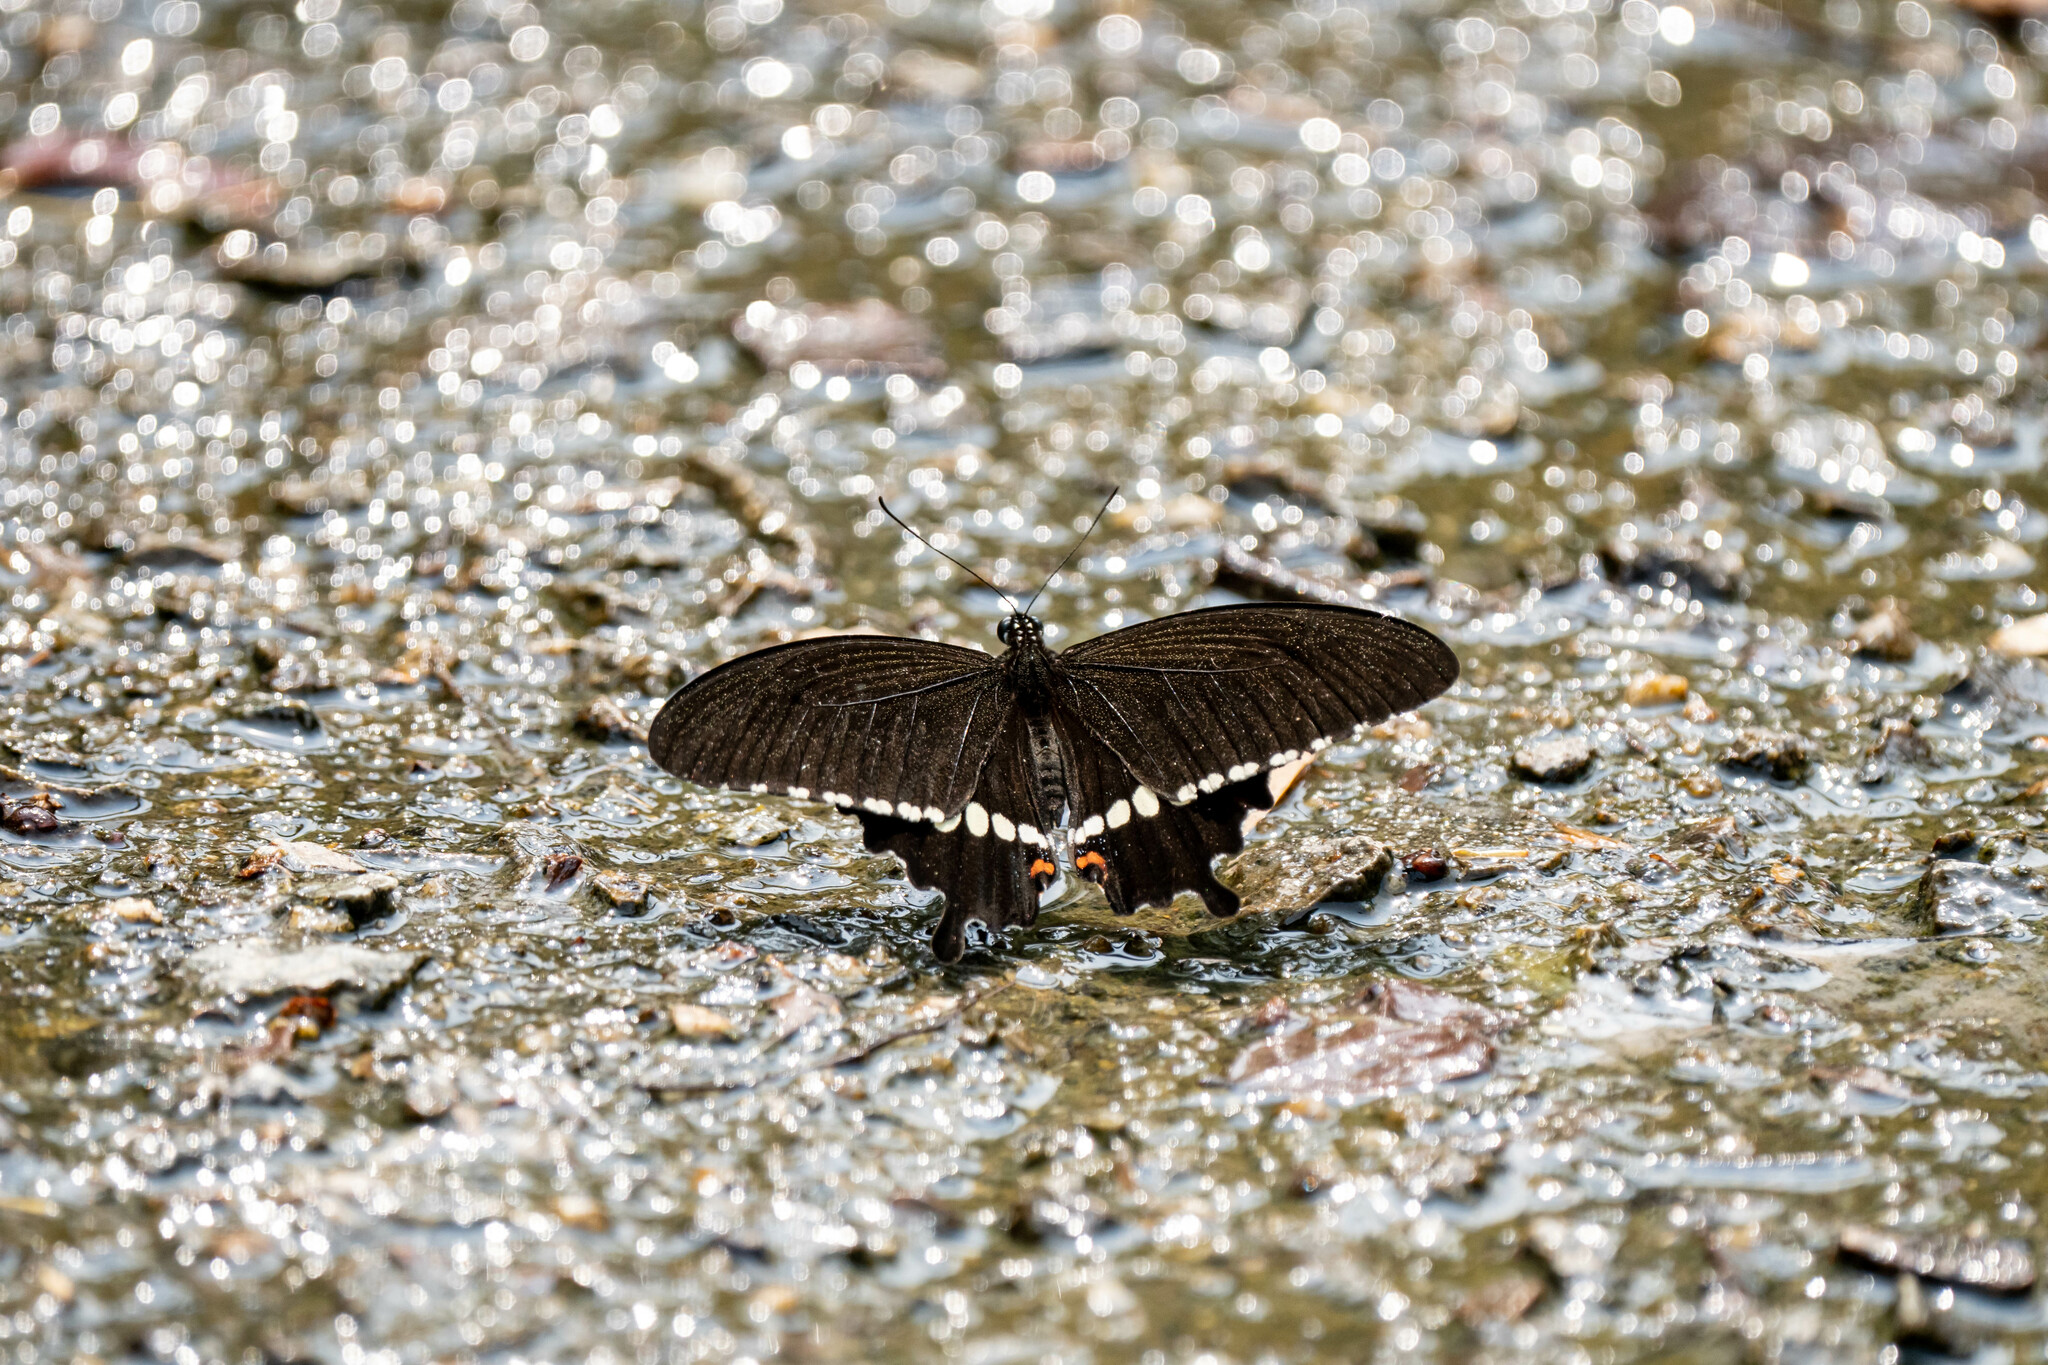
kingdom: Animalia
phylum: Arthropoda
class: Insecta
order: Lepidoptera
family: Papilionidae
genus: Papilio
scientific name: Papilio polytes
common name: Common mormon
